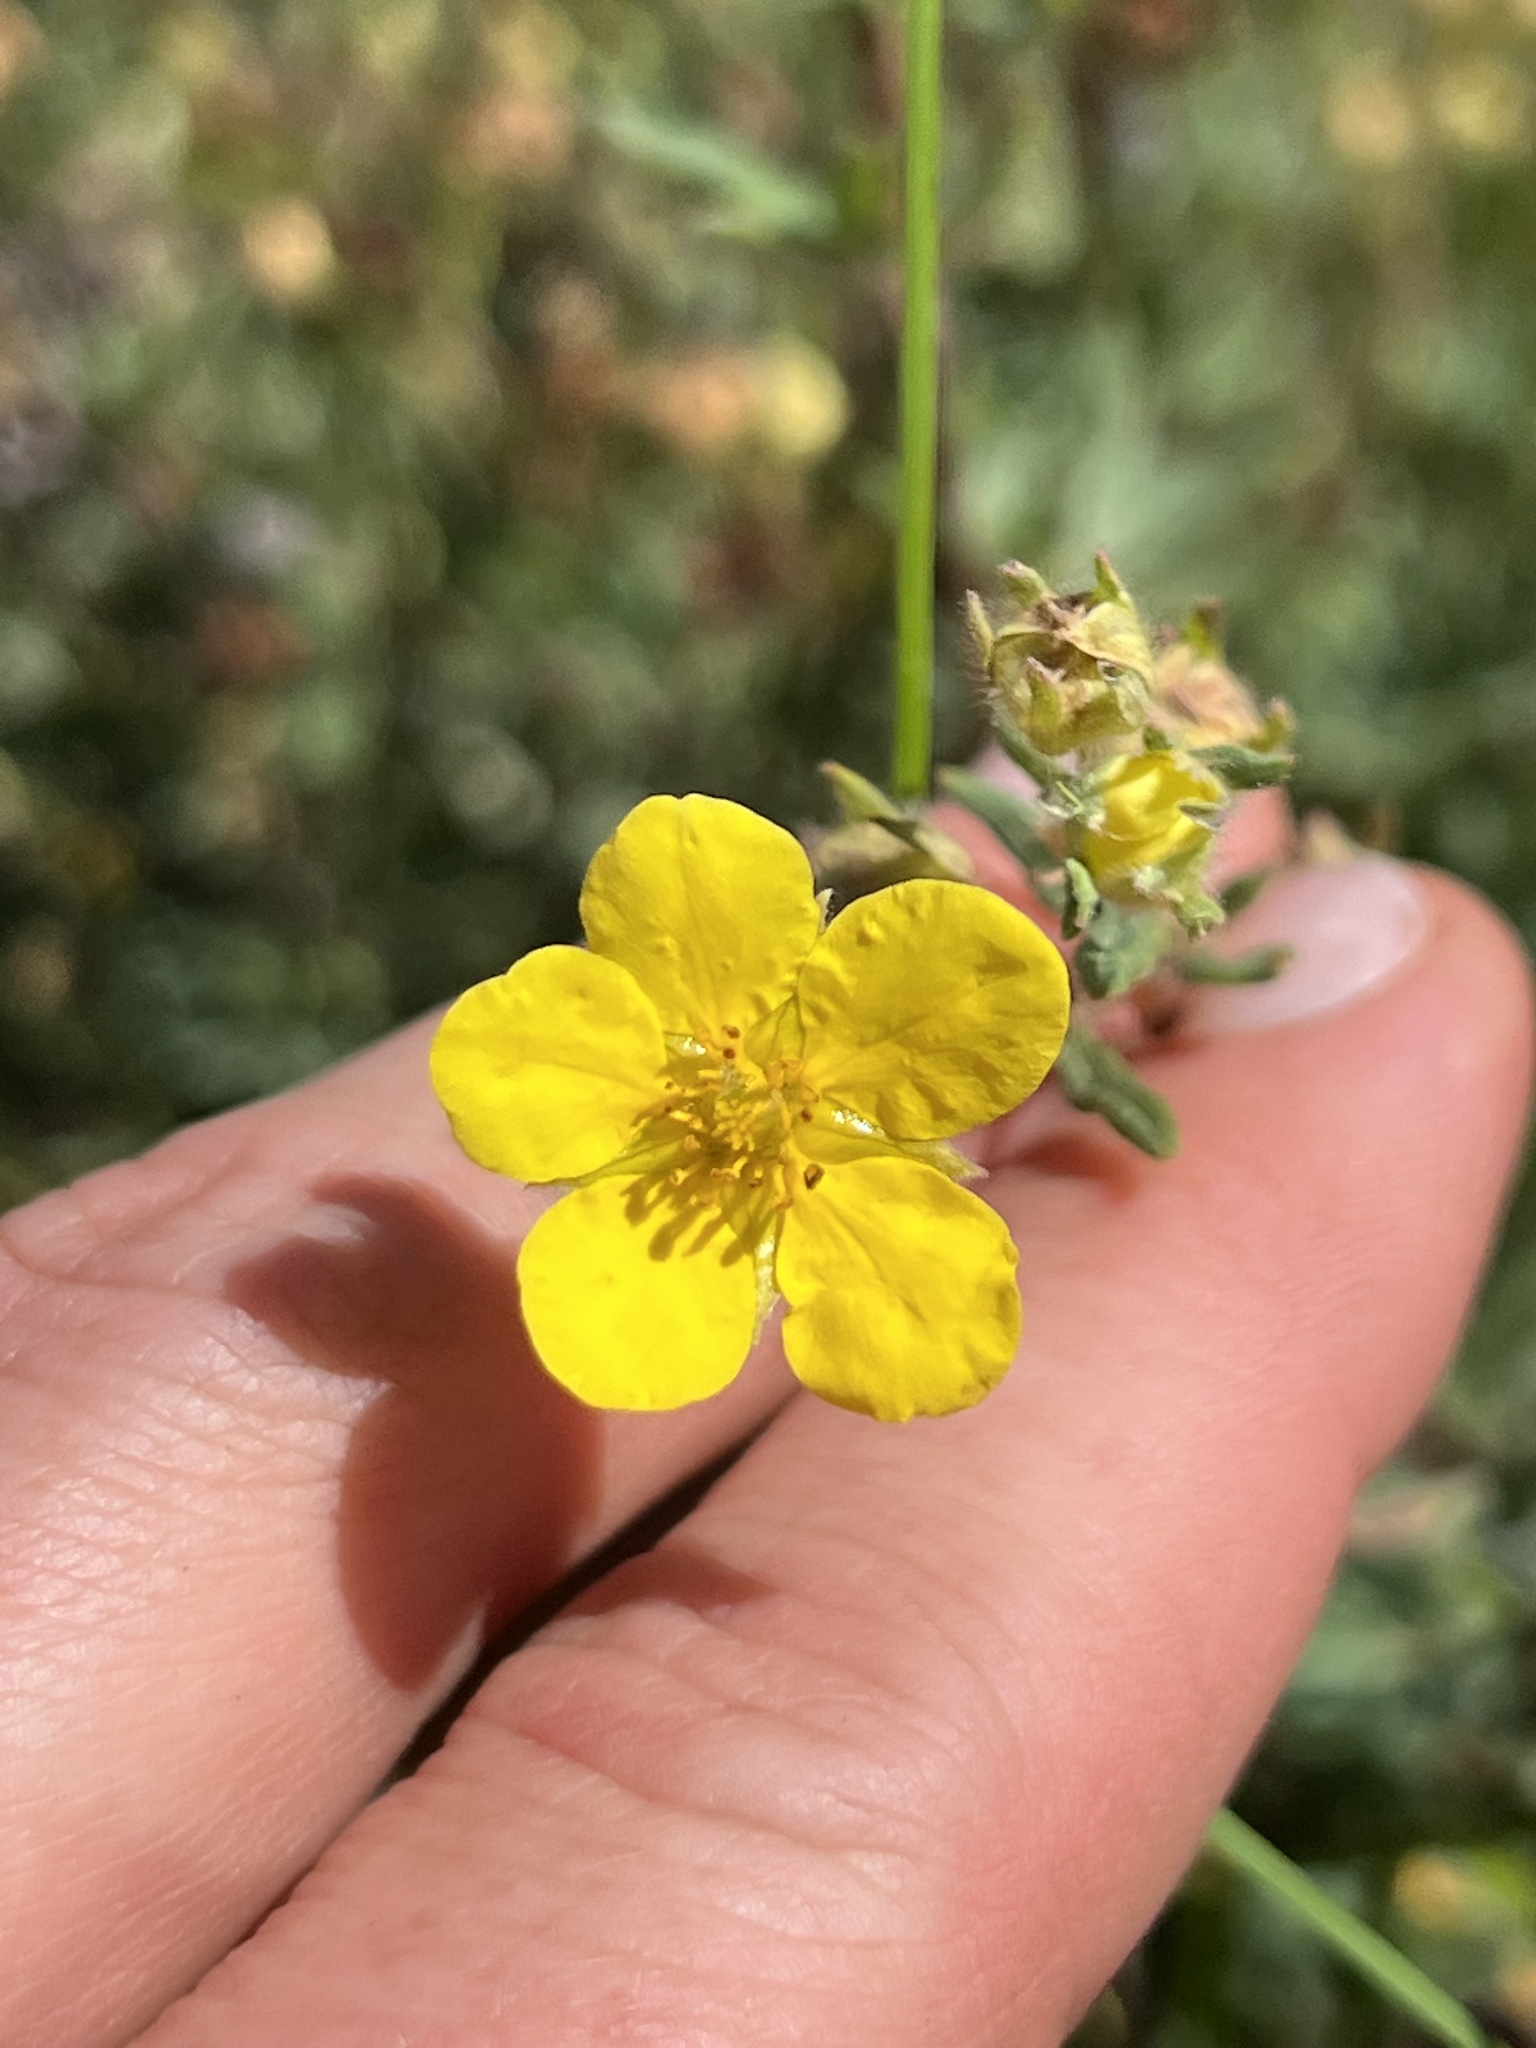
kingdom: Plantae
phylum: Tracheophyta
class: Magnoliopsida
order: Rosales
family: Rosaceae
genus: Dasiphora
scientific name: Dasiphora fruticosa
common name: Shrubby cinquefoil
